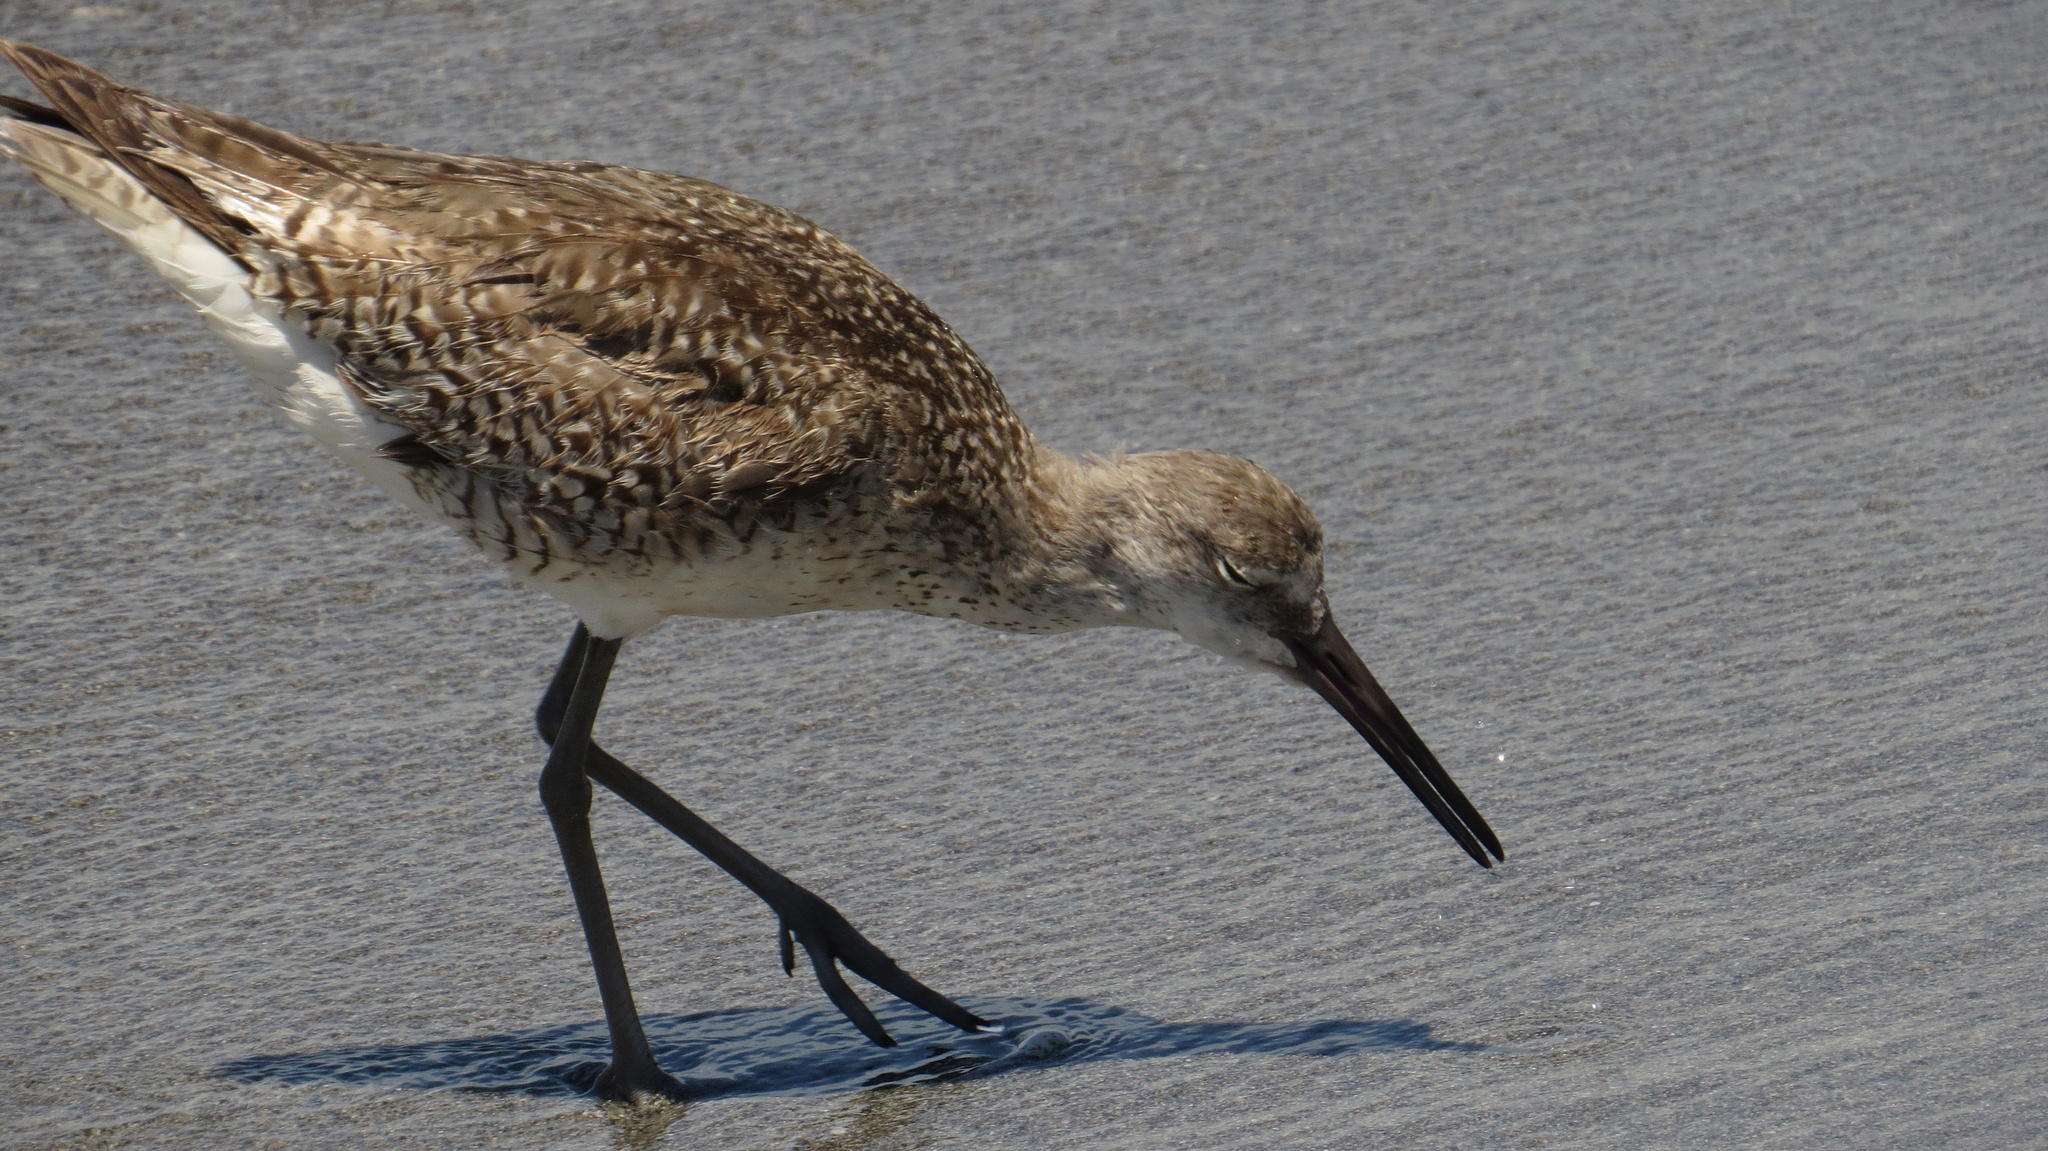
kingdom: Animalia
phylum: Chordata
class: Aves
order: Charadriiformes
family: Scolopacidae
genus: Tringa
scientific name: Tringa semipalmata
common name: Willet
